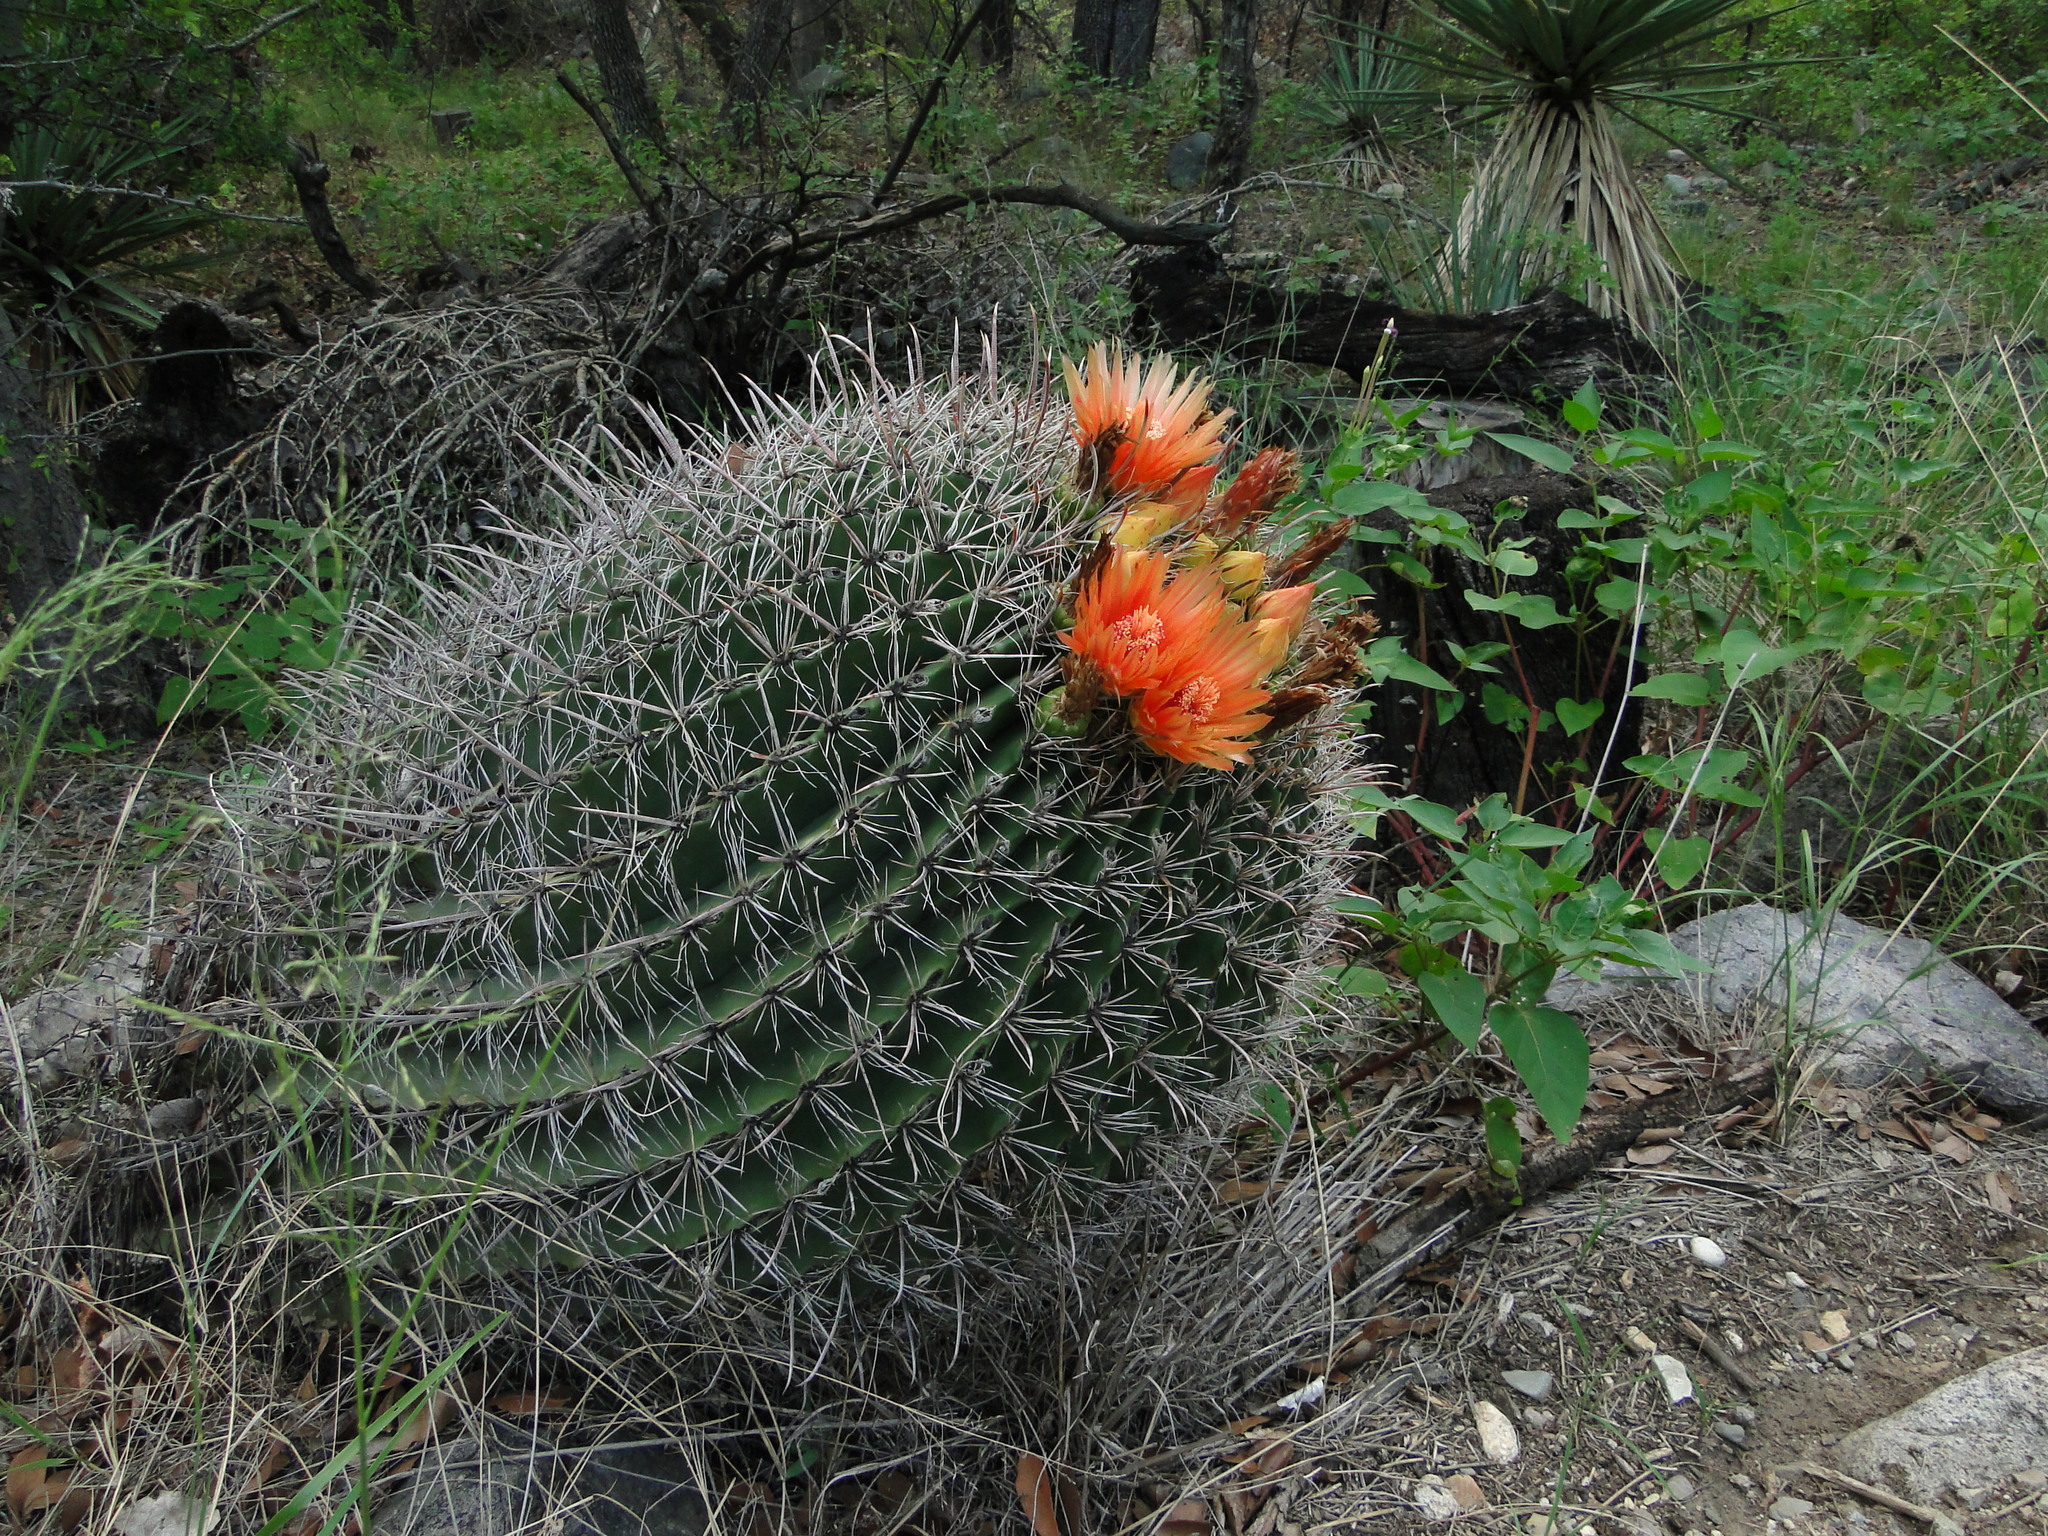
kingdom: Plantae
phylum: Tracheophyta
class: Magnoliopsida
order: Caryophyllales
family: Cactaceae
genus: Ferocactus
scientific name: Ferocactus wislizeni
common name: Candy barrel cactus
